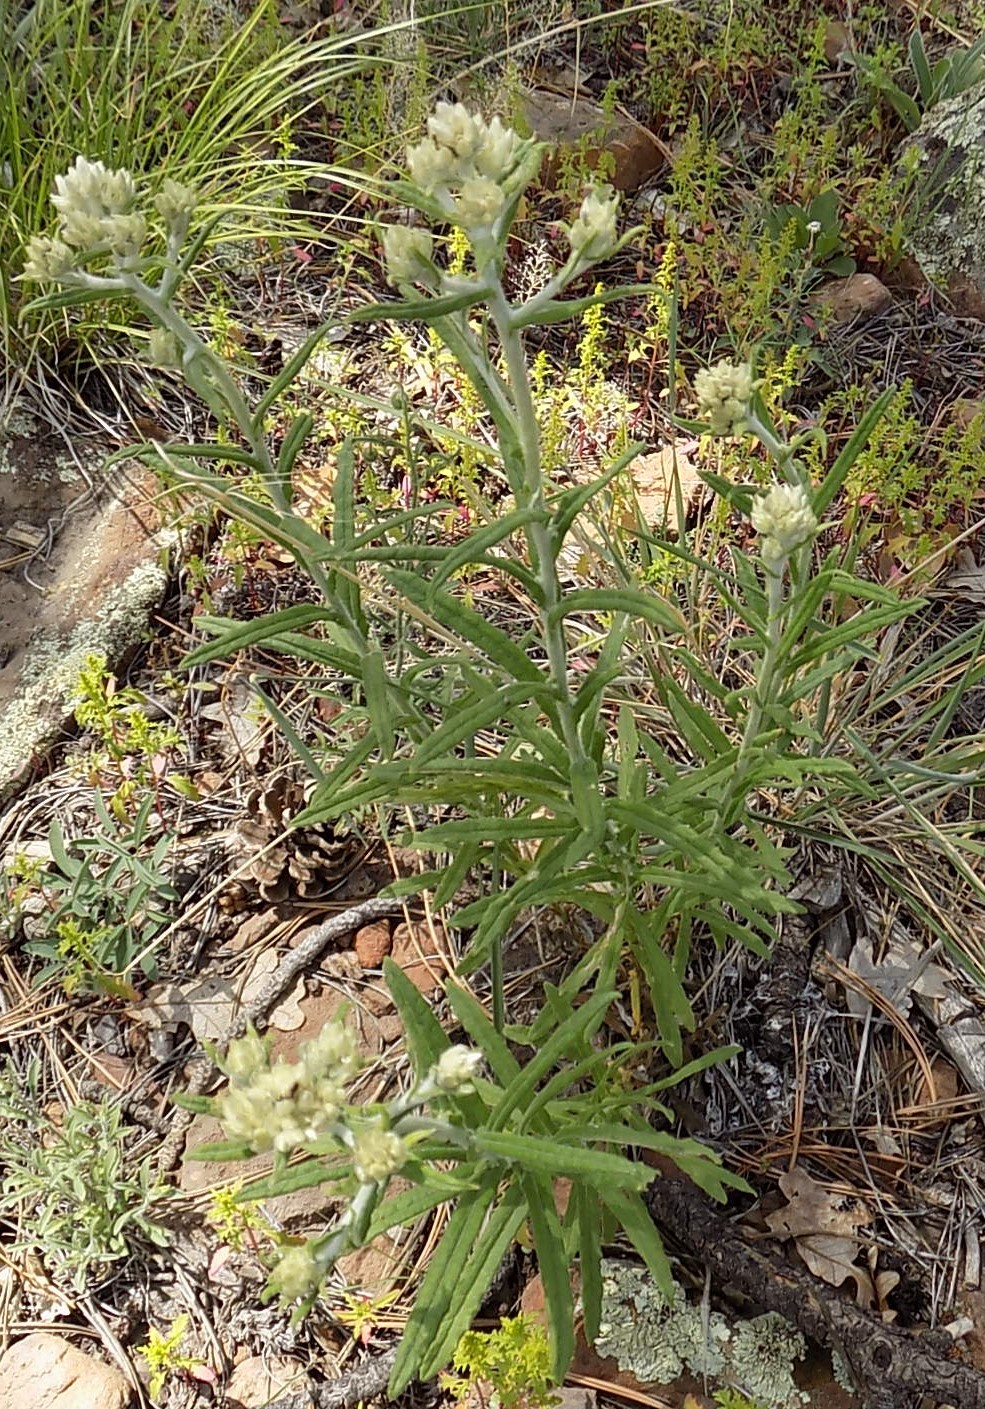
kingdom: Plantae
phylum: Tracheophyta
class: Magnoliopsida
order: Asterales
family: Asteraceae
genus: Pseudognaphalium
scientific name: Pseudognaphalium macounii
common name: Clammy cudweed
